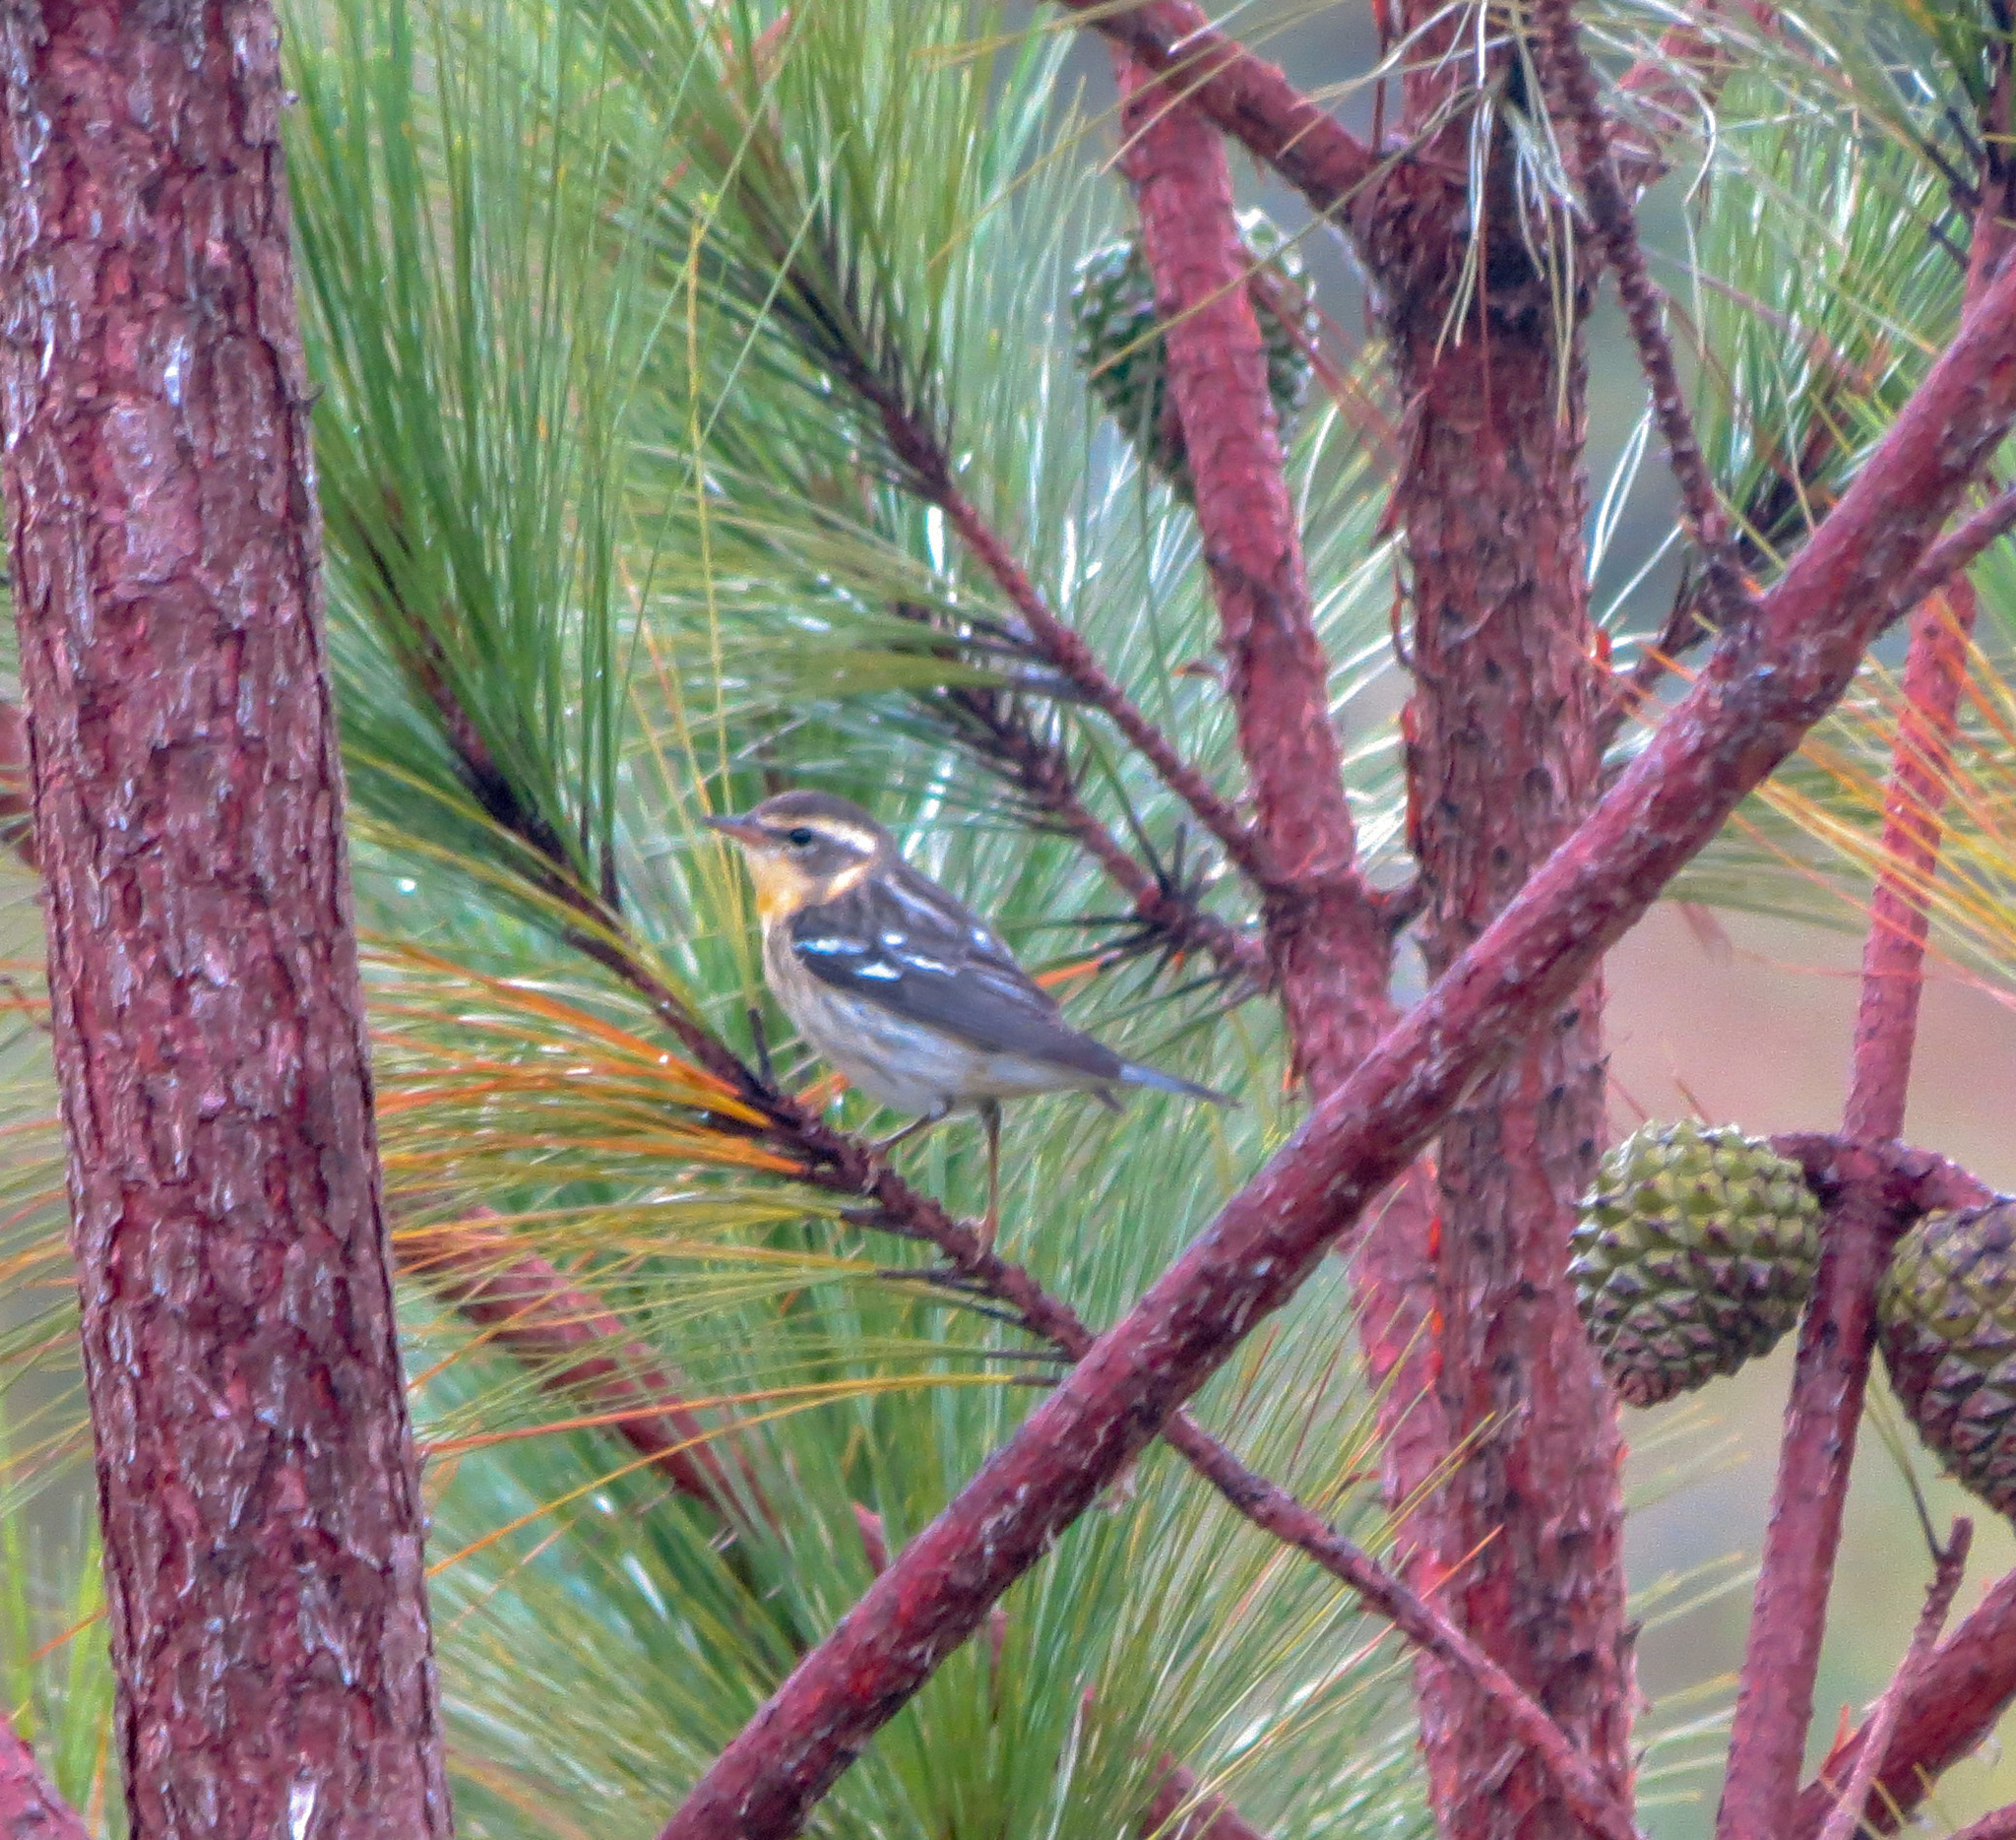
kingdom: Animalia
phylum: Chordata
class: Aves
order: Passeriformes
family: Parulidae
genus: Setophaga
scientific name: Setophaga fusca
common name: Blackburnian warbler
